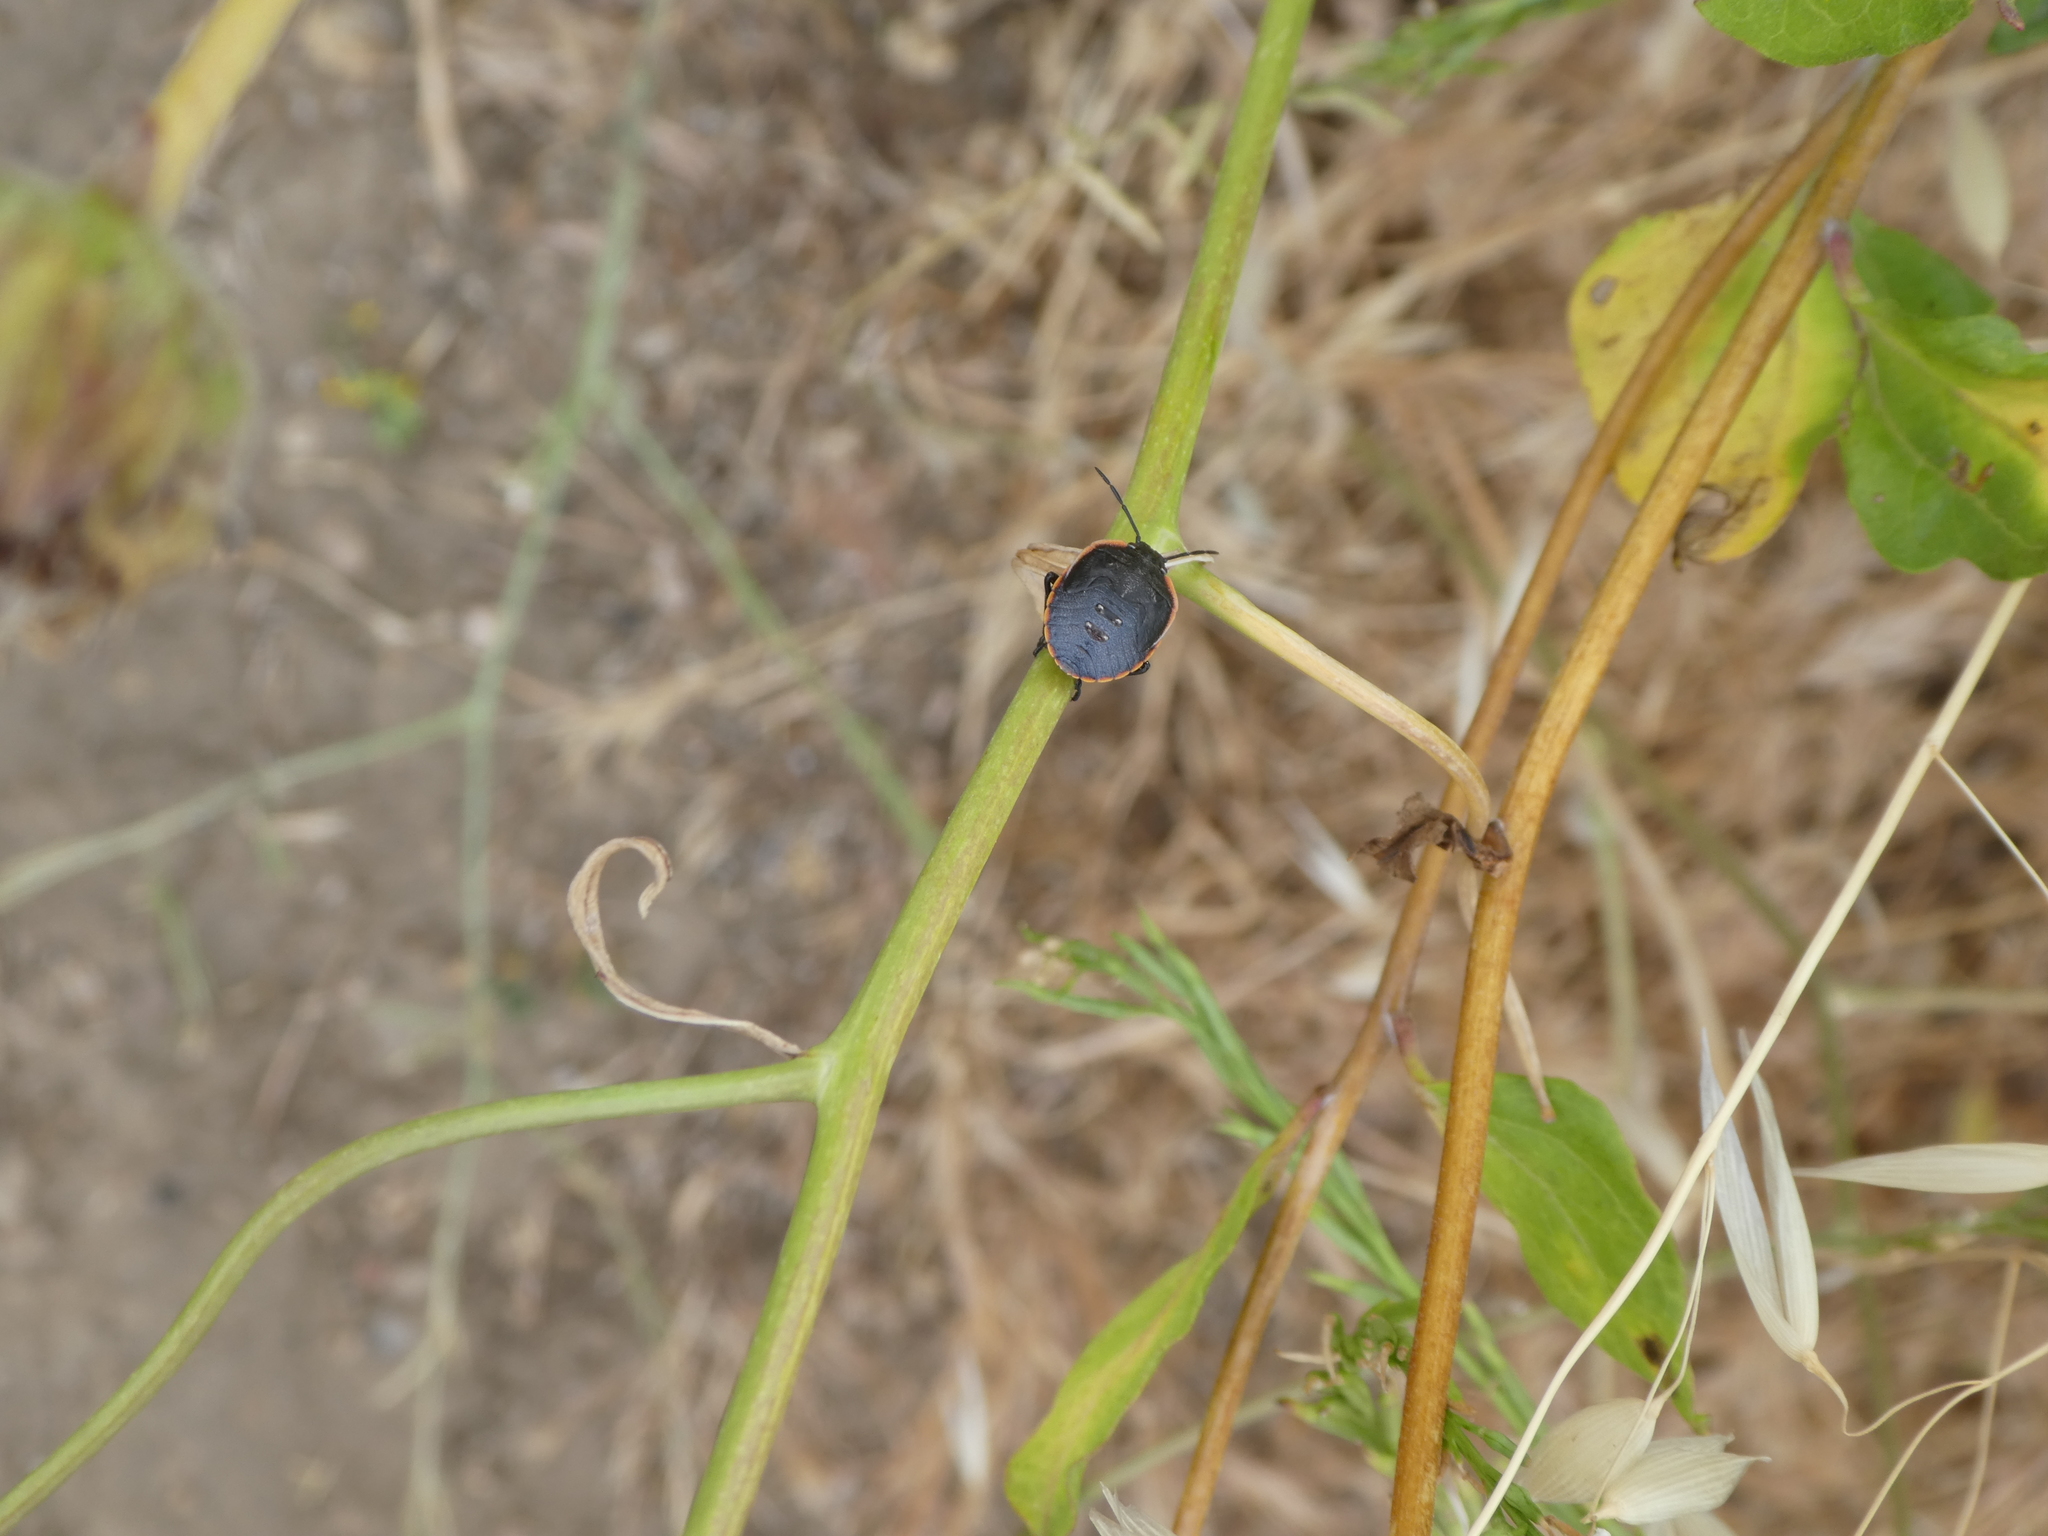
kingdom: Animalia
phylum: Arthropoda
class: Insecta
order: Hemiptera
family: Pentatomidae
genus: Chlorochroa
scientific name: Chlorochroa ligata
